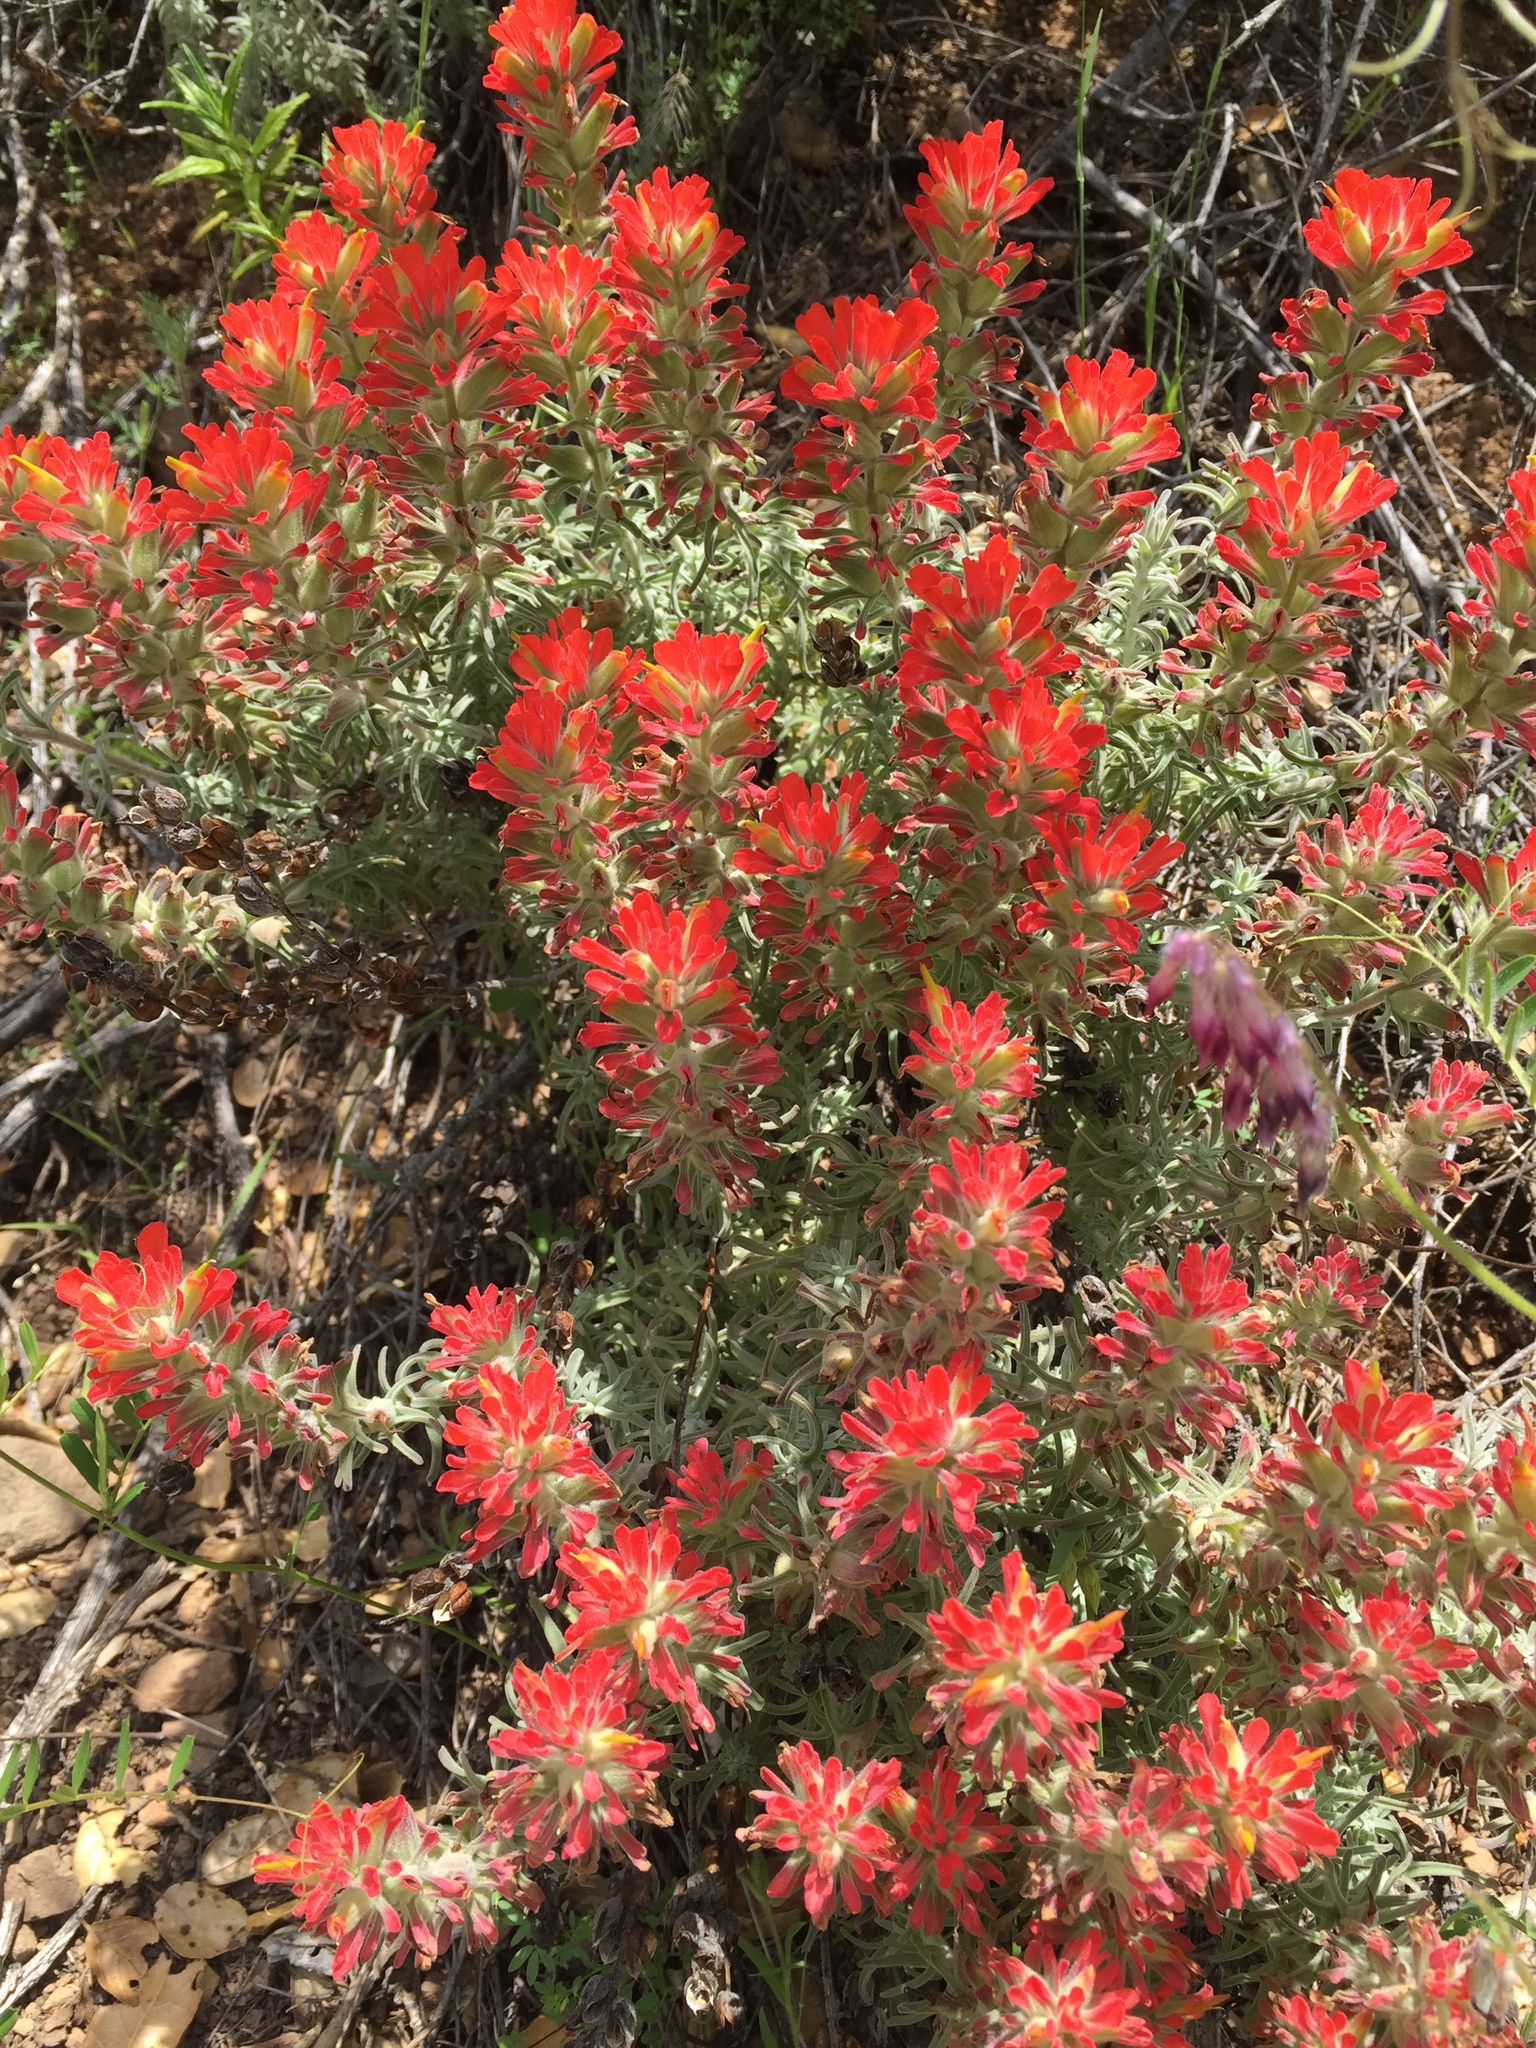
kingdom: Plantae
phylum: Tracheophyta
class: Magnoliopsida
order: Lamiales
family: Orobanchaceae
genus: Castilleja
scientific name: Castilleja foliolosa
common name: Woolly indian paintbrush
